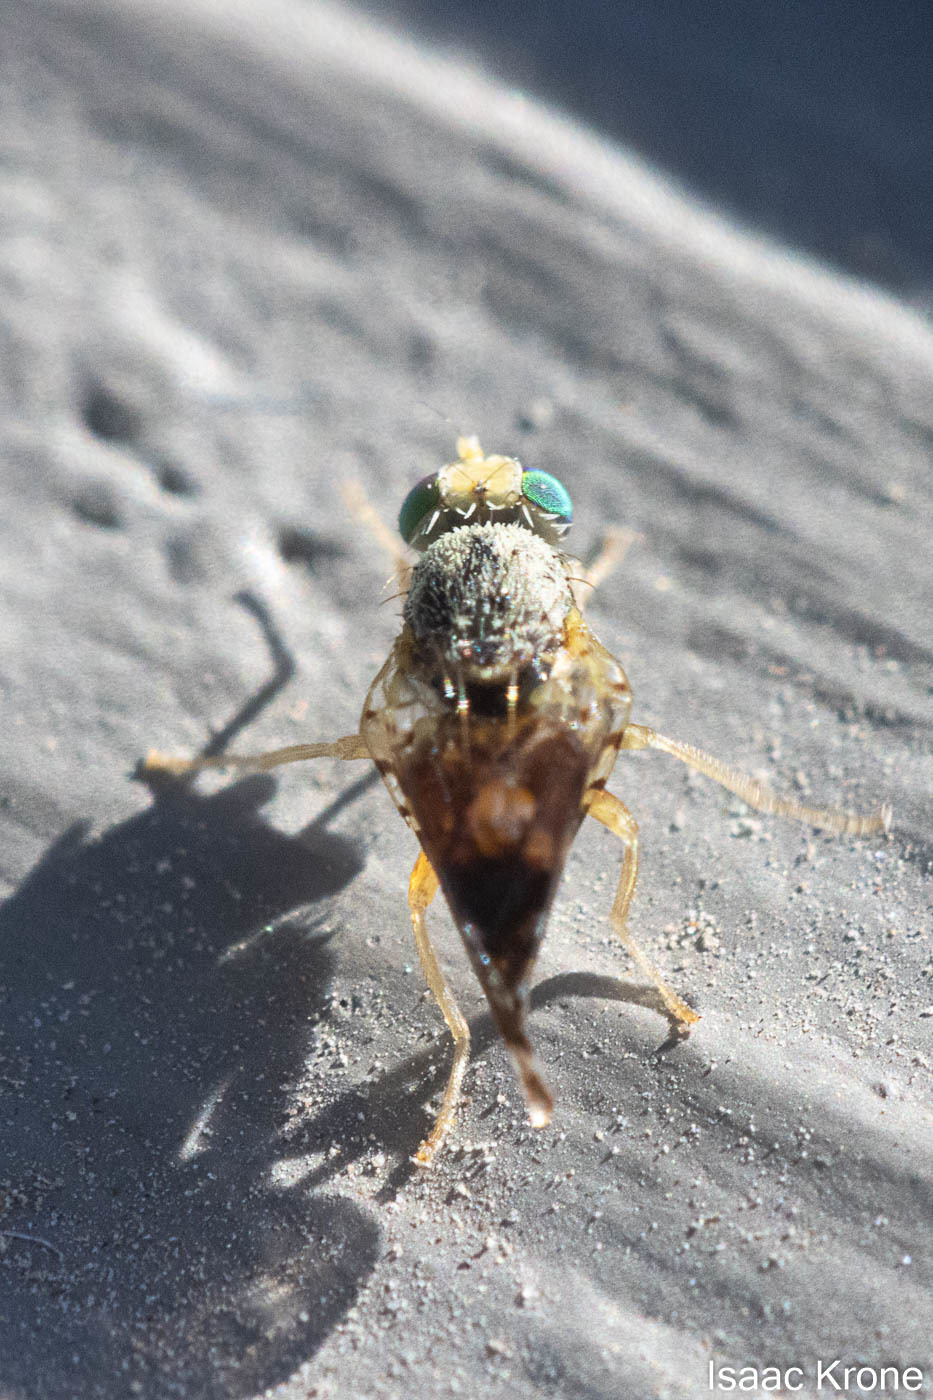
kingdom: Animalia
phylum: Arthropoda
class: Insecta
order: Diptera
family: Tephritidae
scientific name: Tephritidae
